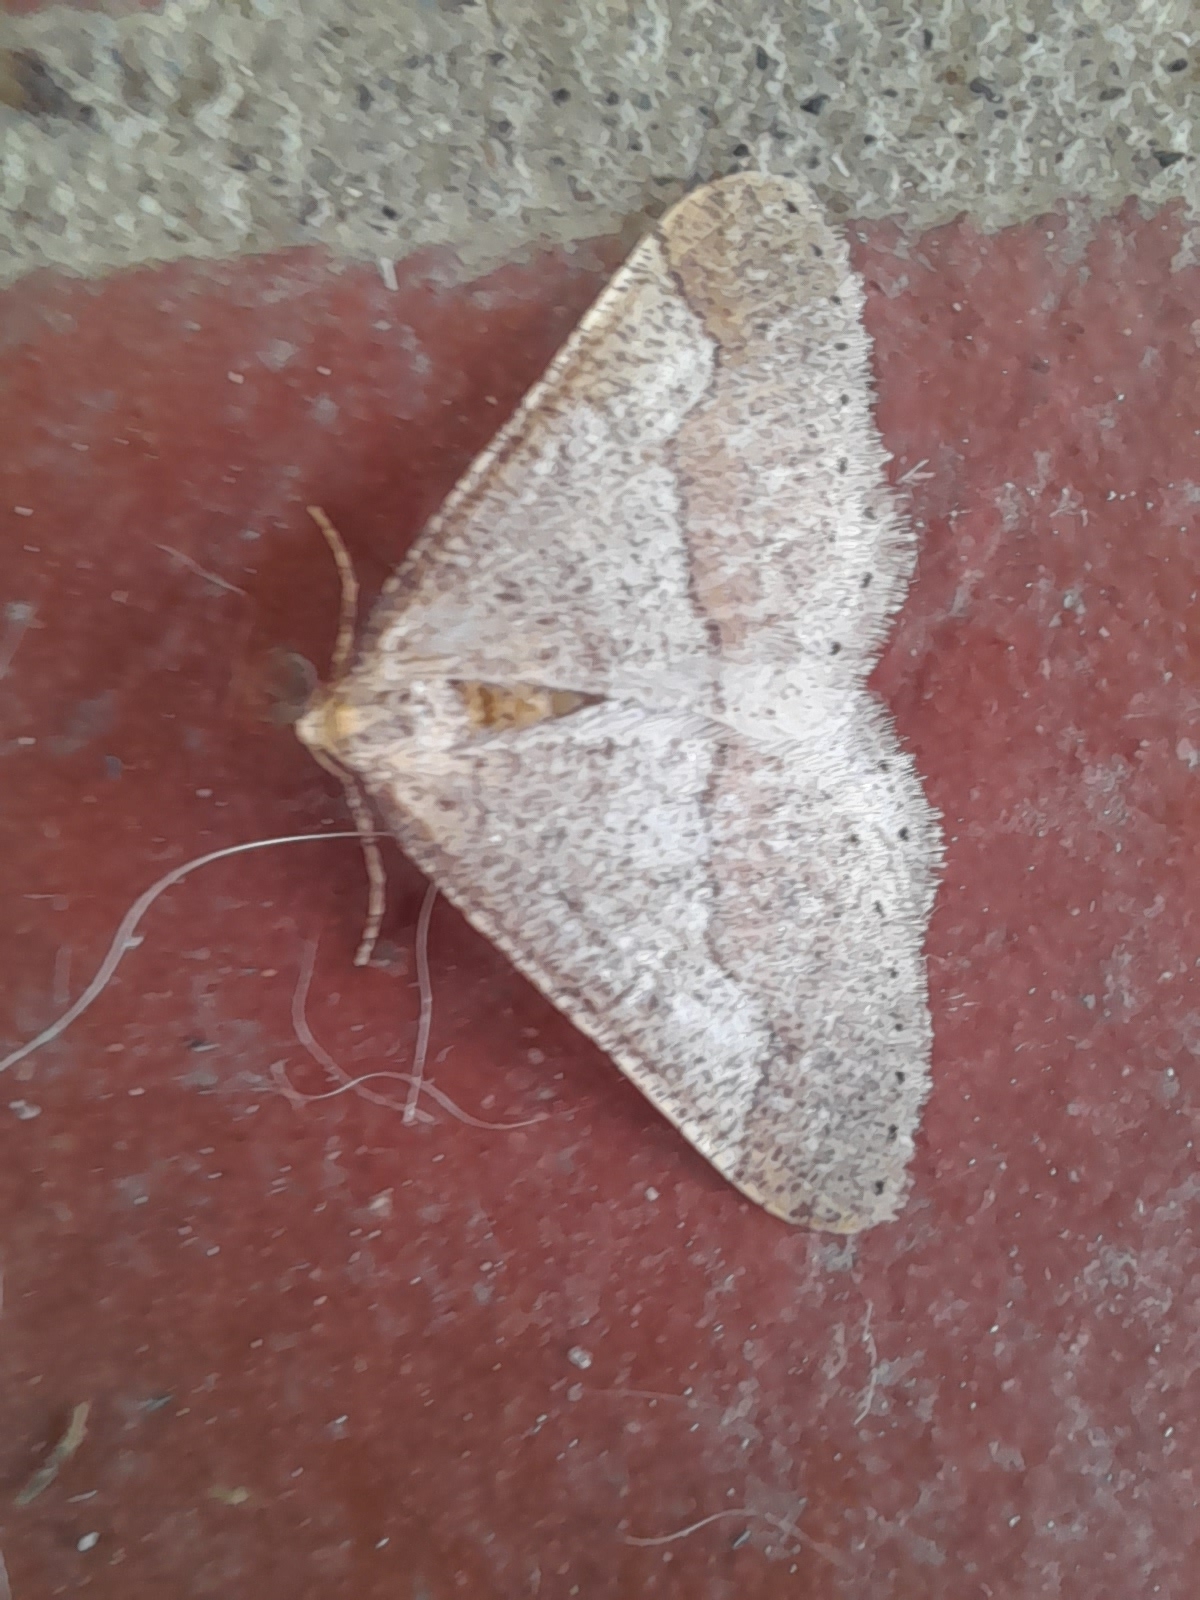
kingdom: Animalia
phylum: Arthropoda
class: Insecta
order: Lepidoptera
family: Geometridae
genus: Agriopis
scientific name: Agriopis marginaria
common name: Dotted border
